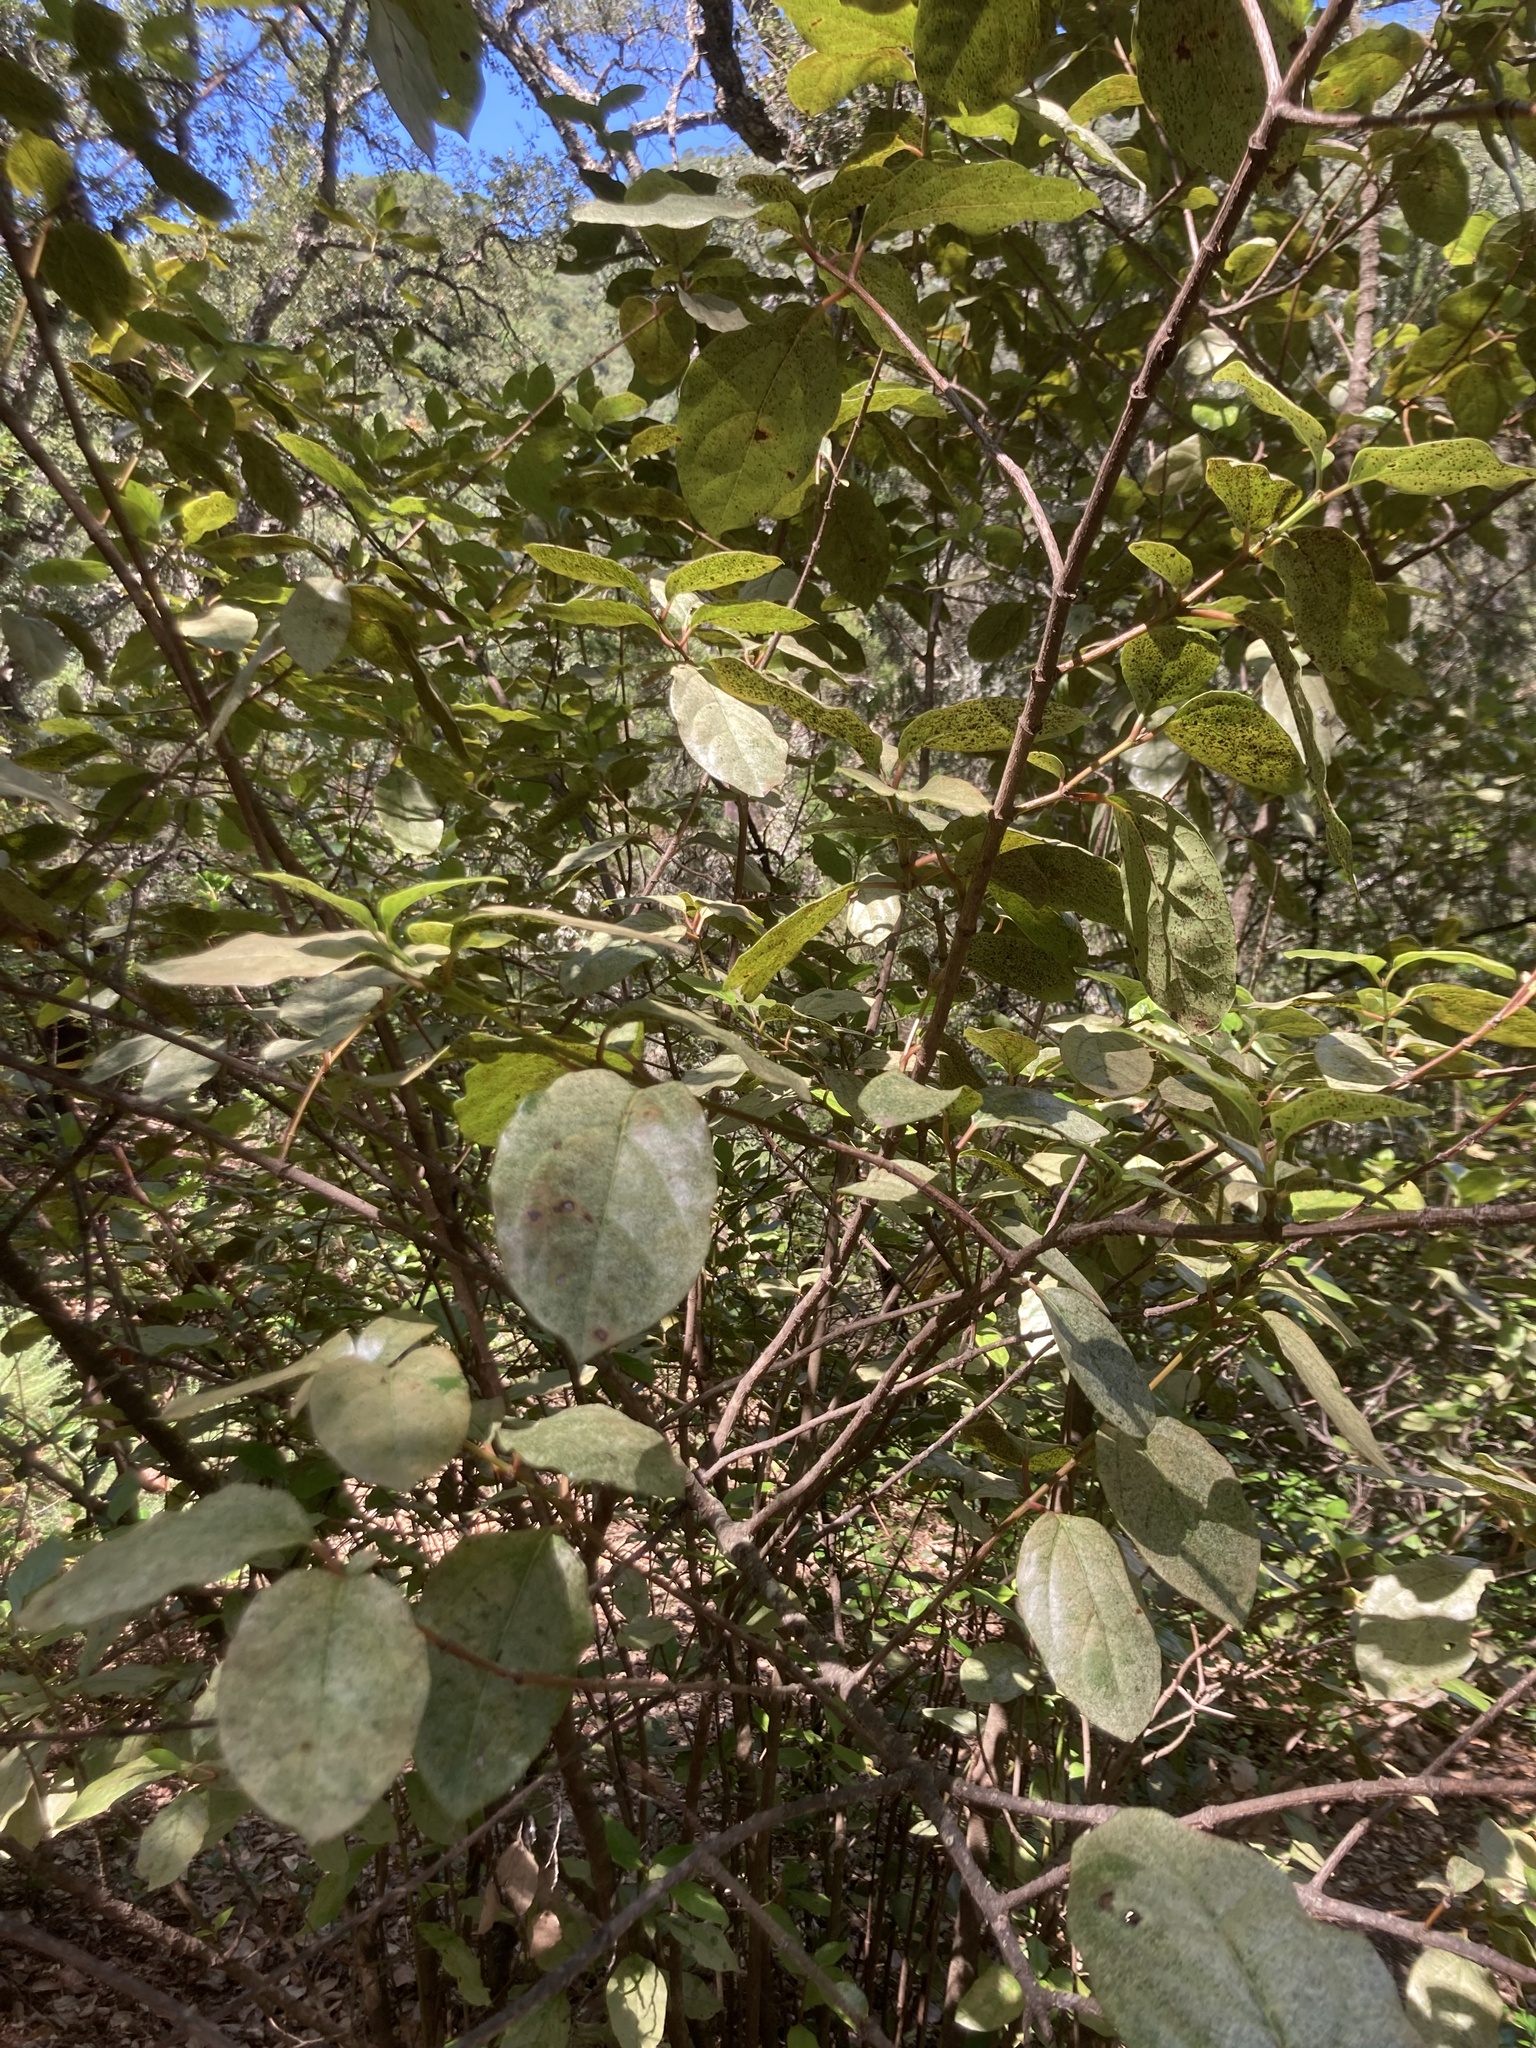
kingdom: Plantae
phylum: Tracheophyta
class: Magnoliopsida
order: Dipsacales
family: Viburnaceae
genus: Viburnum
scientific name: Viburnum tinus
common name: Laurustinus
